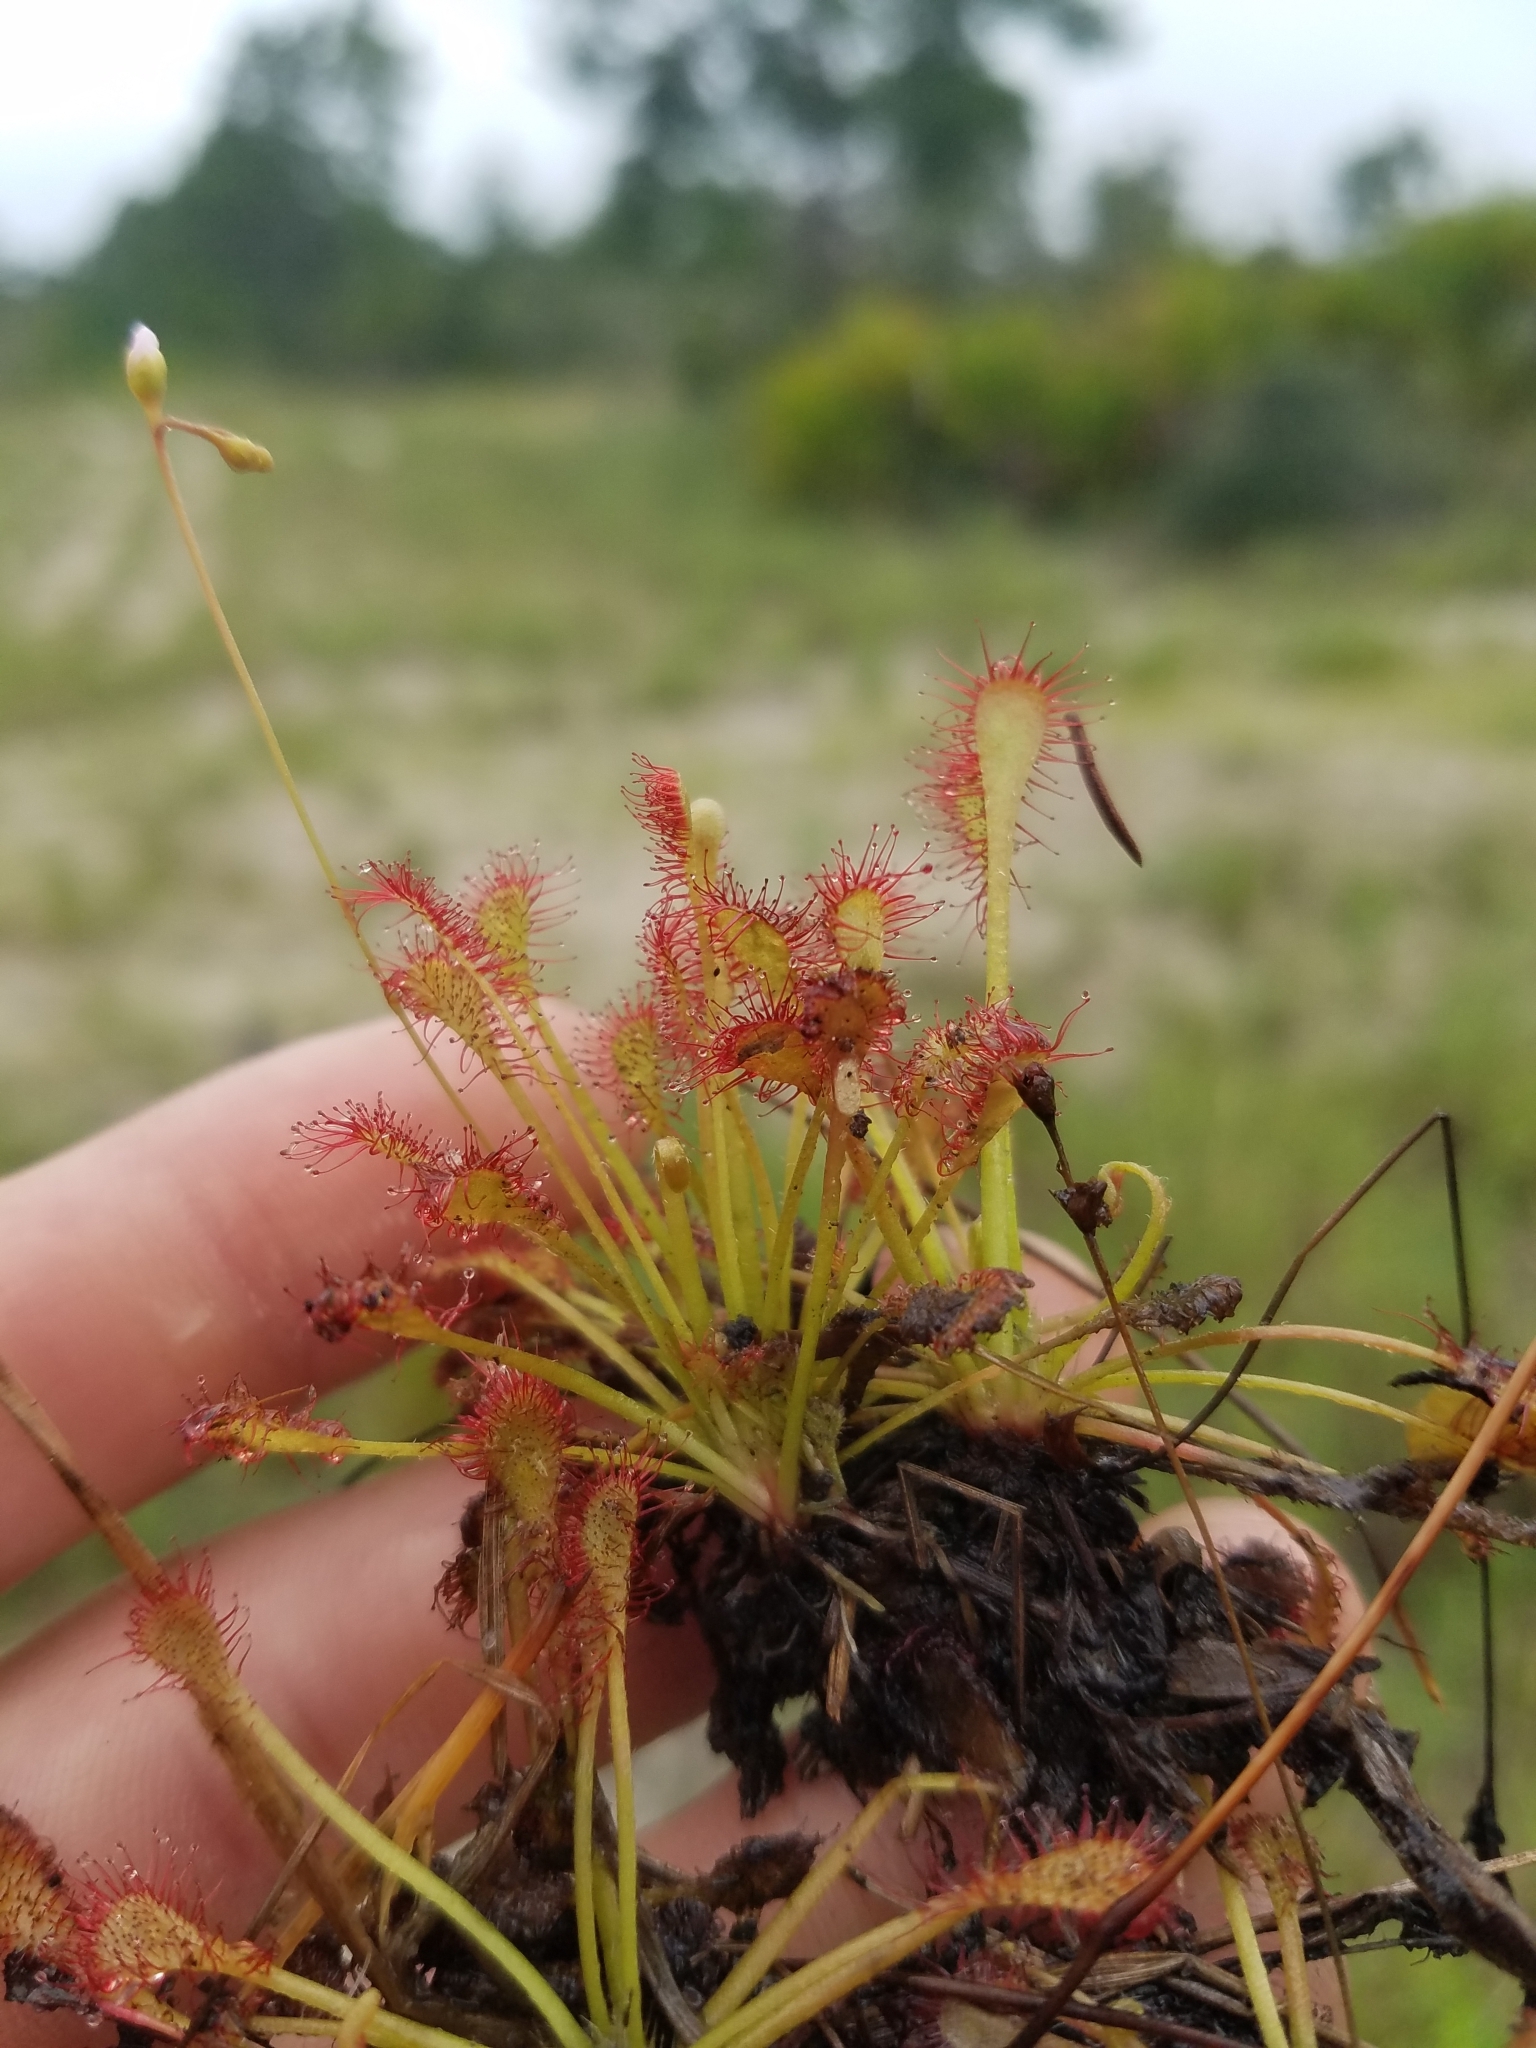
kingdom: Plantae
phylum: Tracheophyta
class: Magnoliopsida
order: Caryophyllales
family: Droseraceae
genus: Drosera
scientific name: Drosera intermedia
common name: Oblong-leaved sundew
